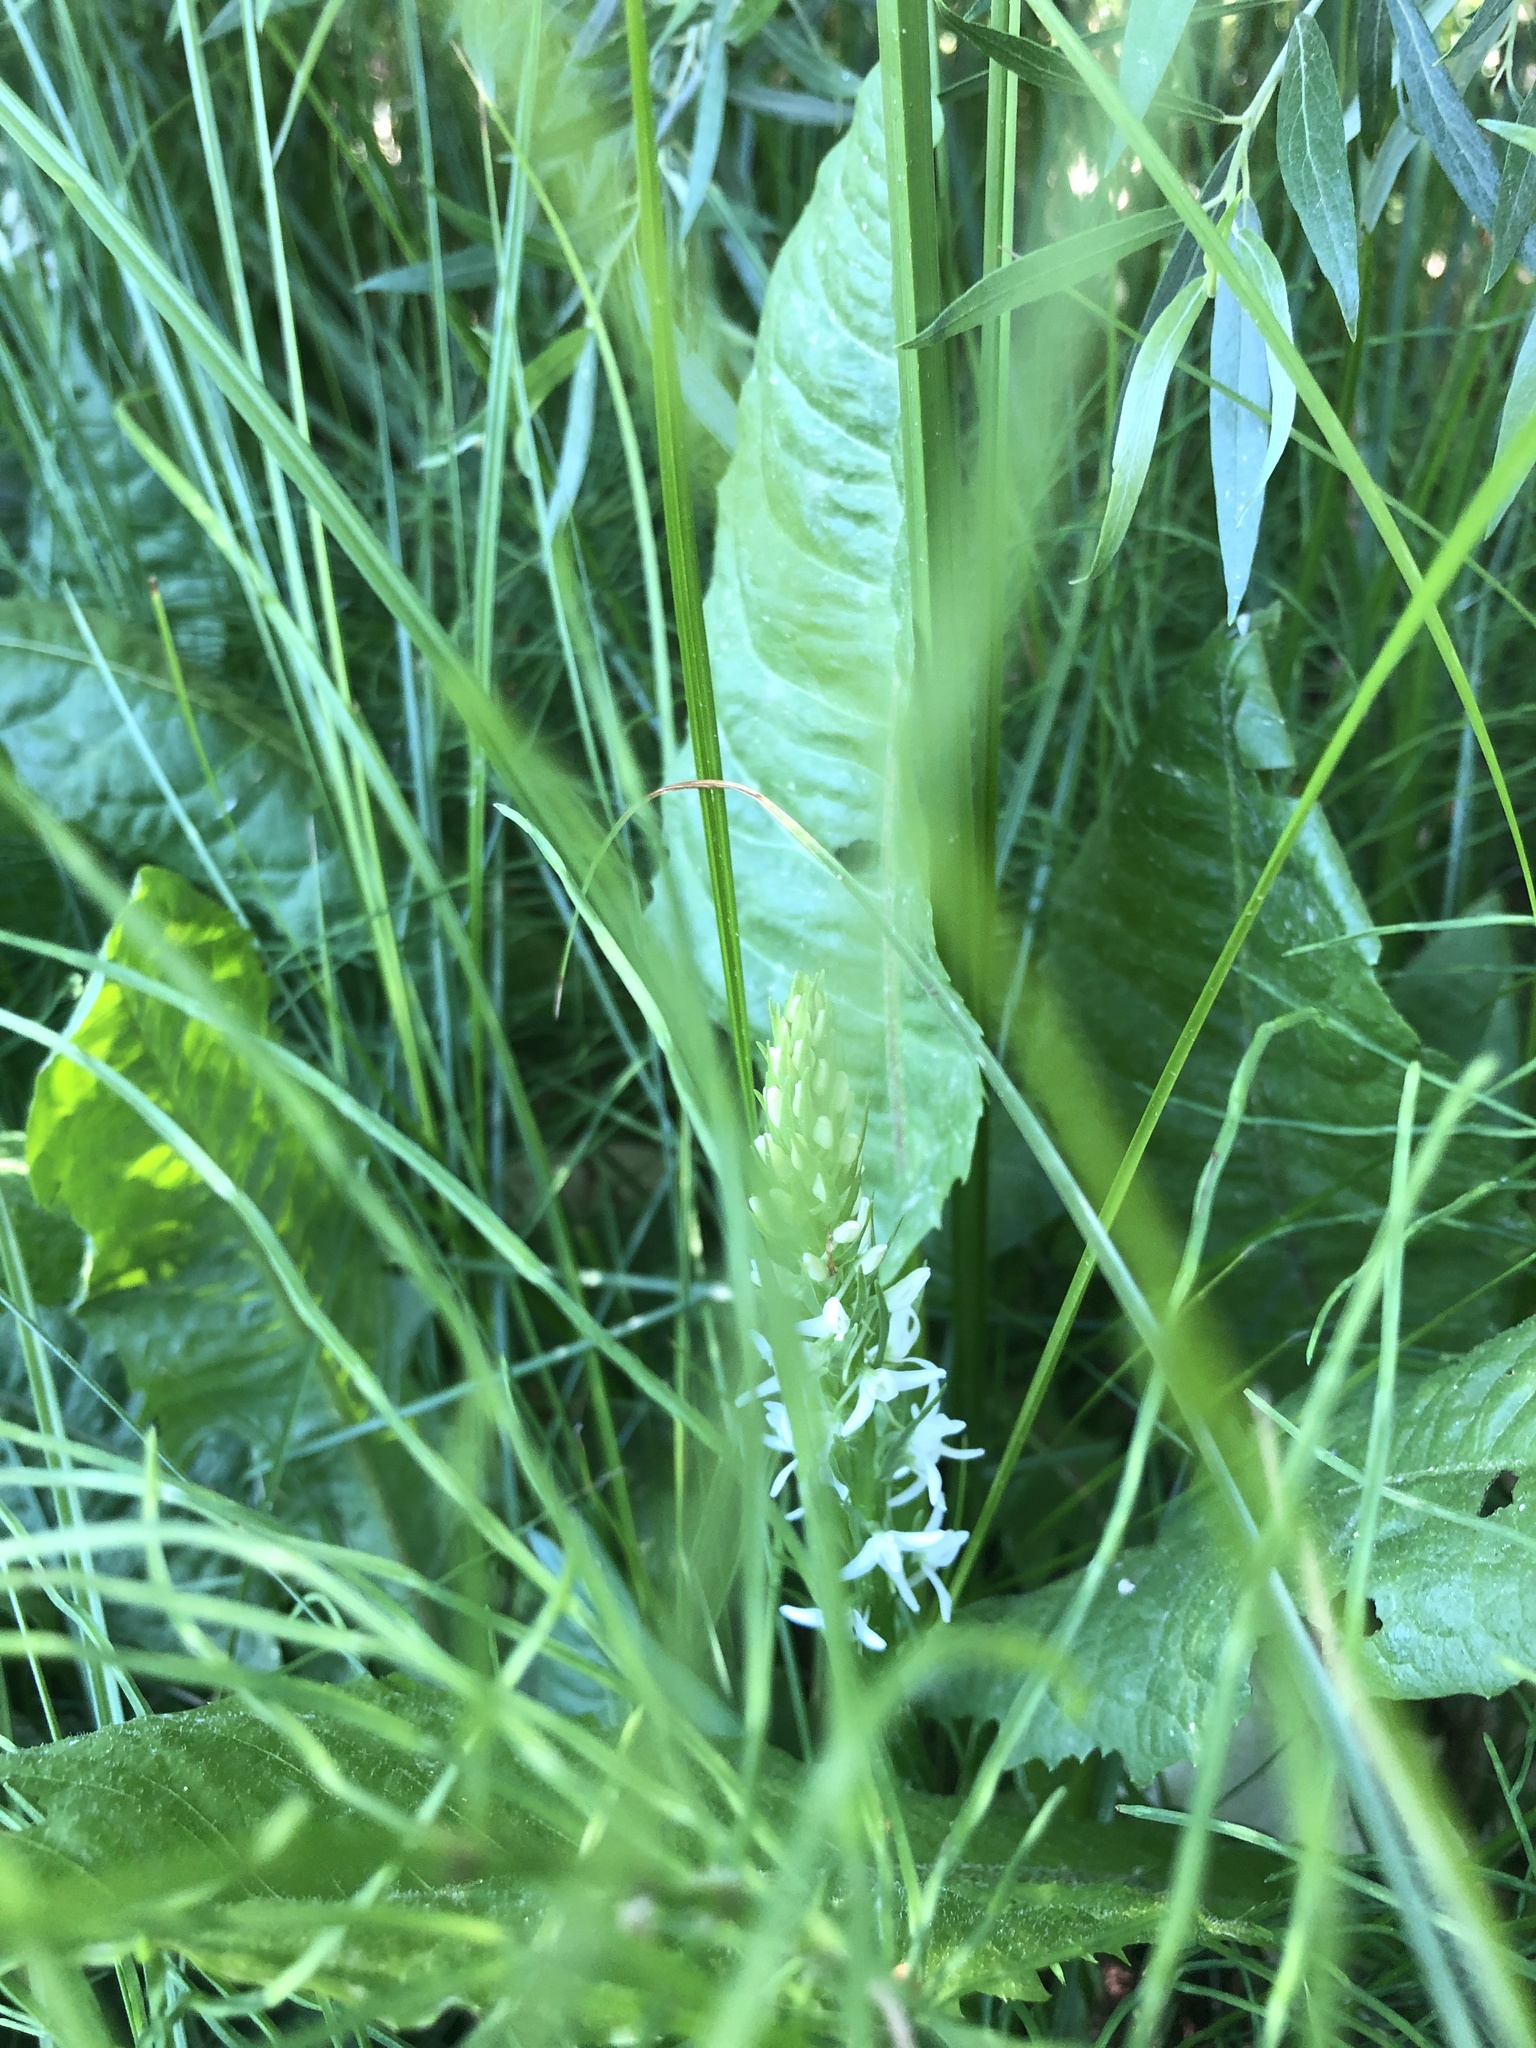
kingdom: Plantae
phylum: Tracheophyta
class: Liliopsida
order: Asparagales
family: Orchidaceae
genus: Platanthera
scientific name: Platanthera dilatata
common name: Bog candles
